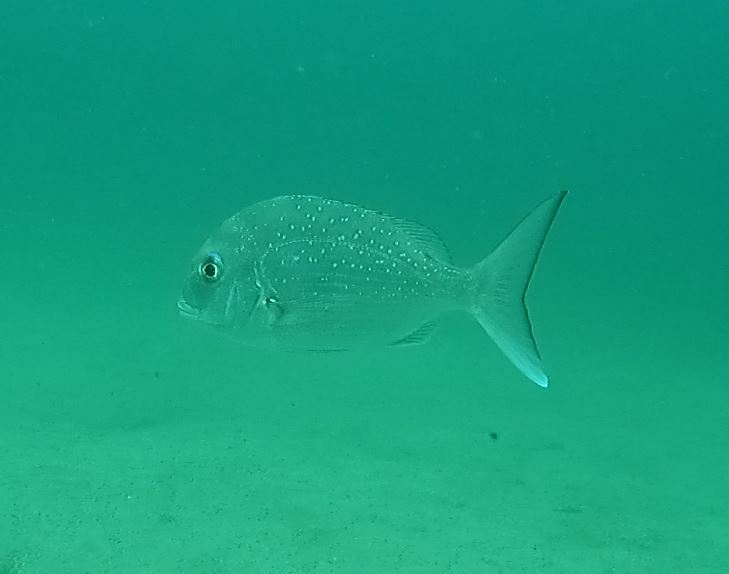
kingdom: Animalia
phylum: Chordata
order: Perciformes
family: Sparidae
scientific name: Sparidae
